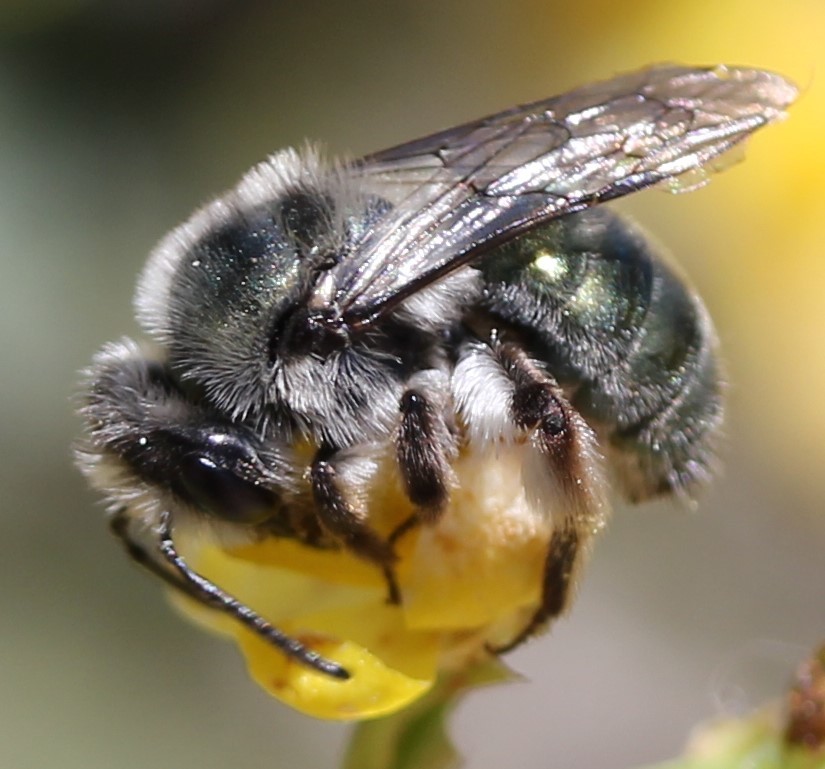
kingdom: Animalia
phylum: Arthropoda
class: Insecta
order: Hymenoptera
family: Andrenidae
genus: Andrena
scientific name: Andrena impolita
